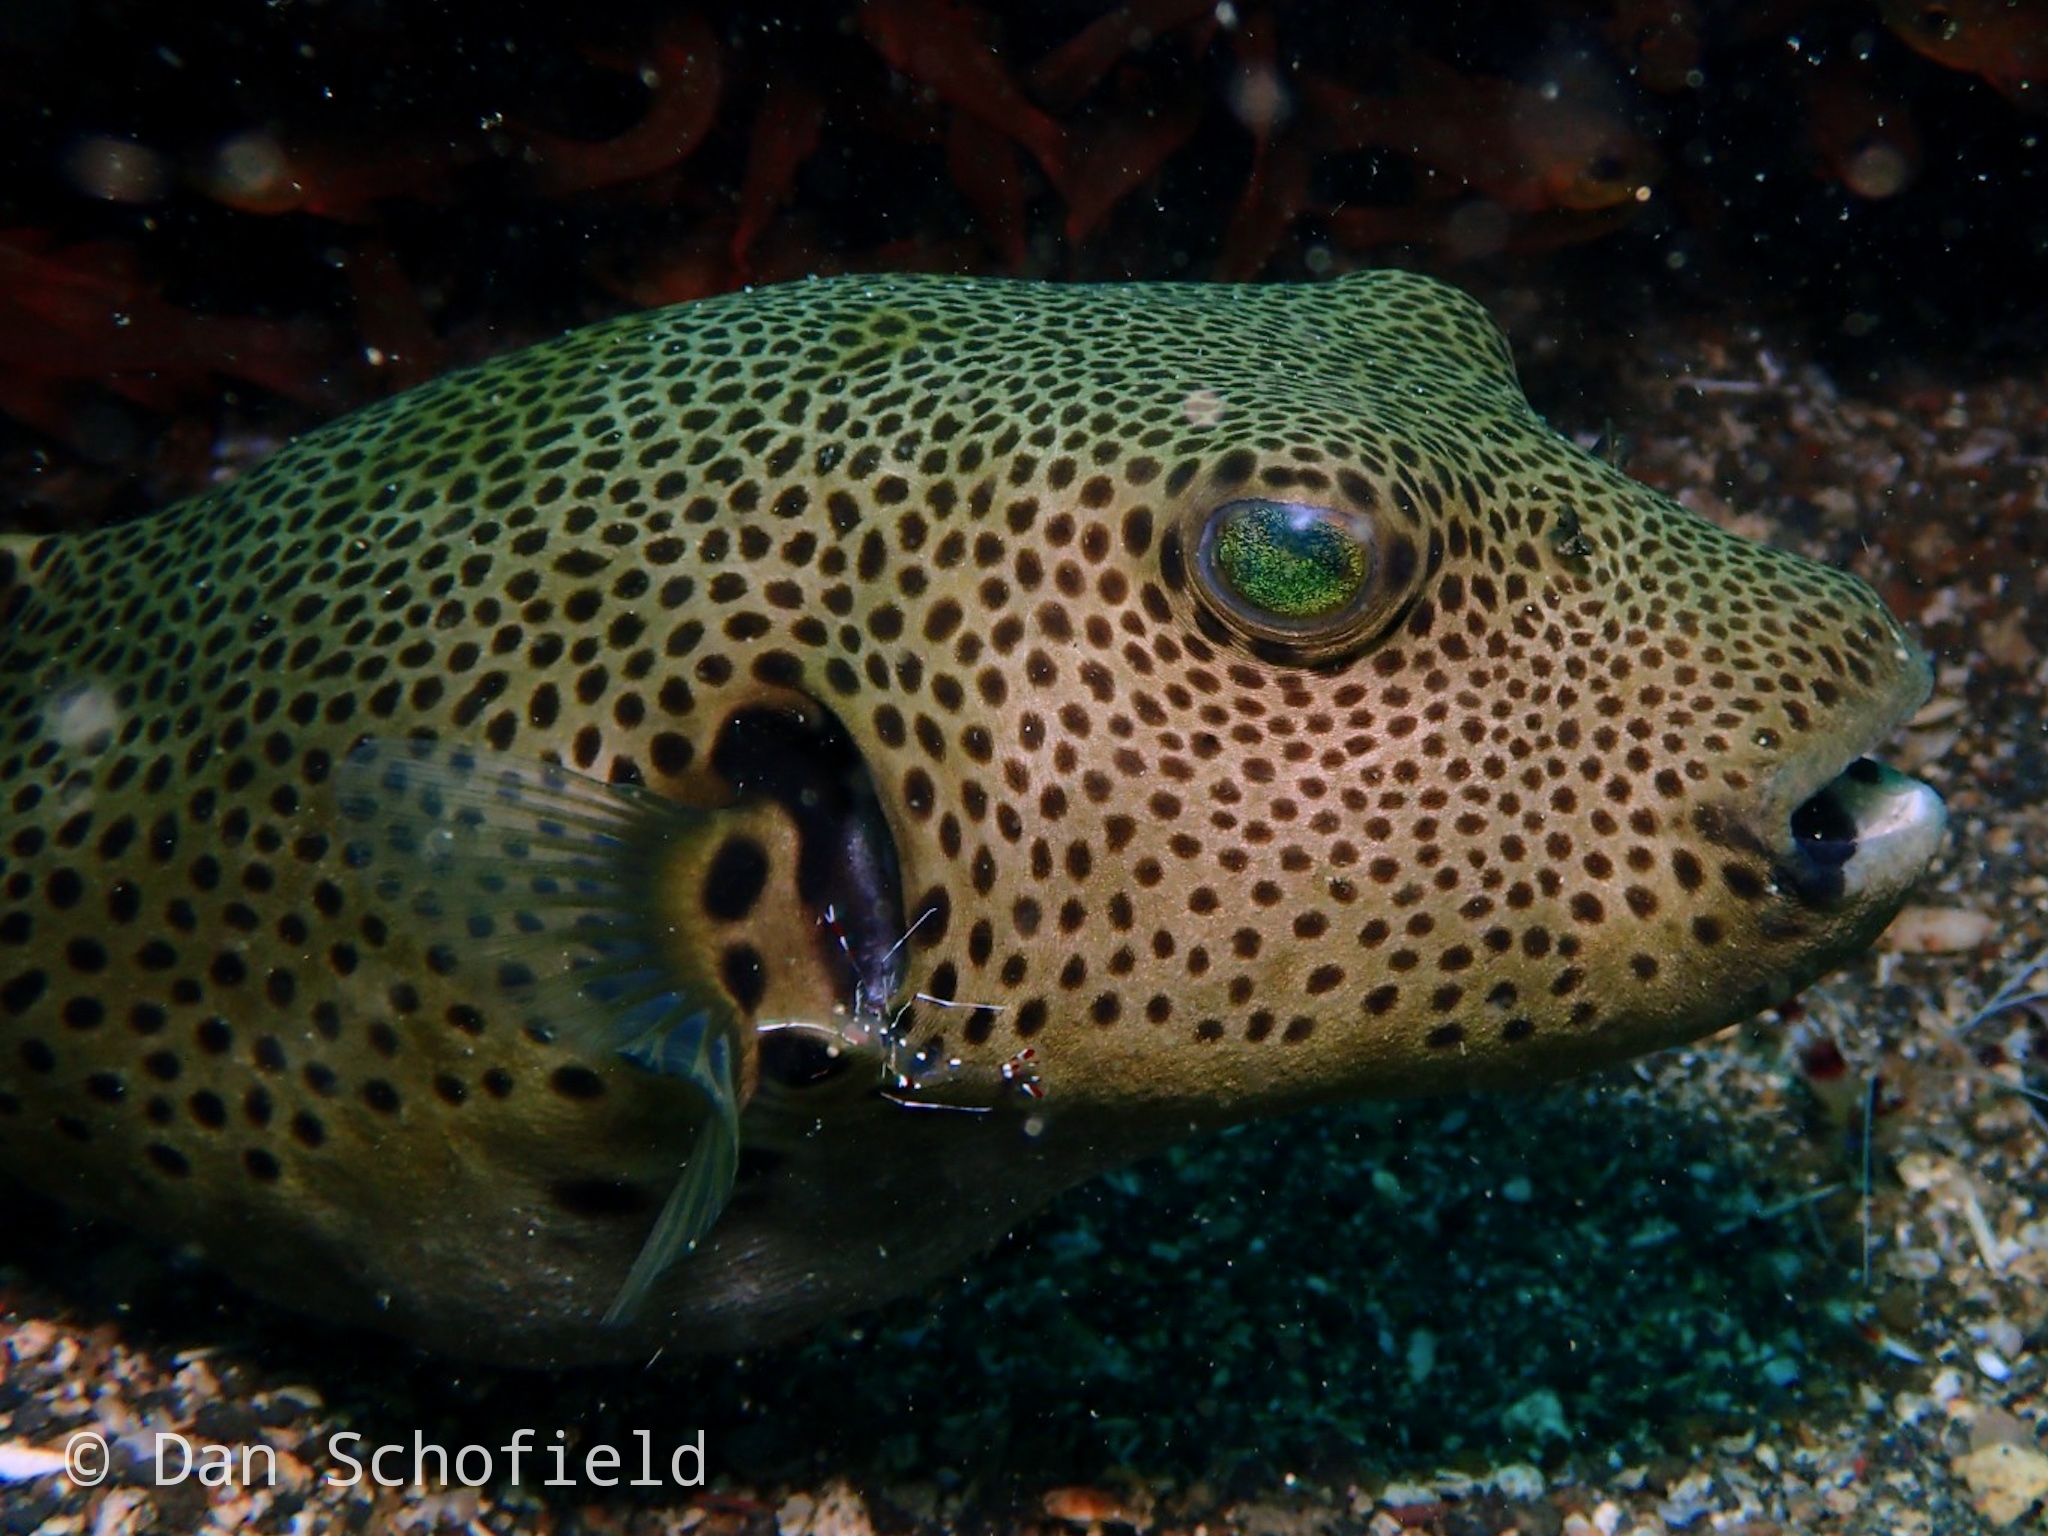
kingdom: Animalia
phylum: Chordata
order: Tetraodontiformes
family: Tetraodontidae
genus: Arothron
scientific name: Arothron stellatus
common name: Star blaasop
